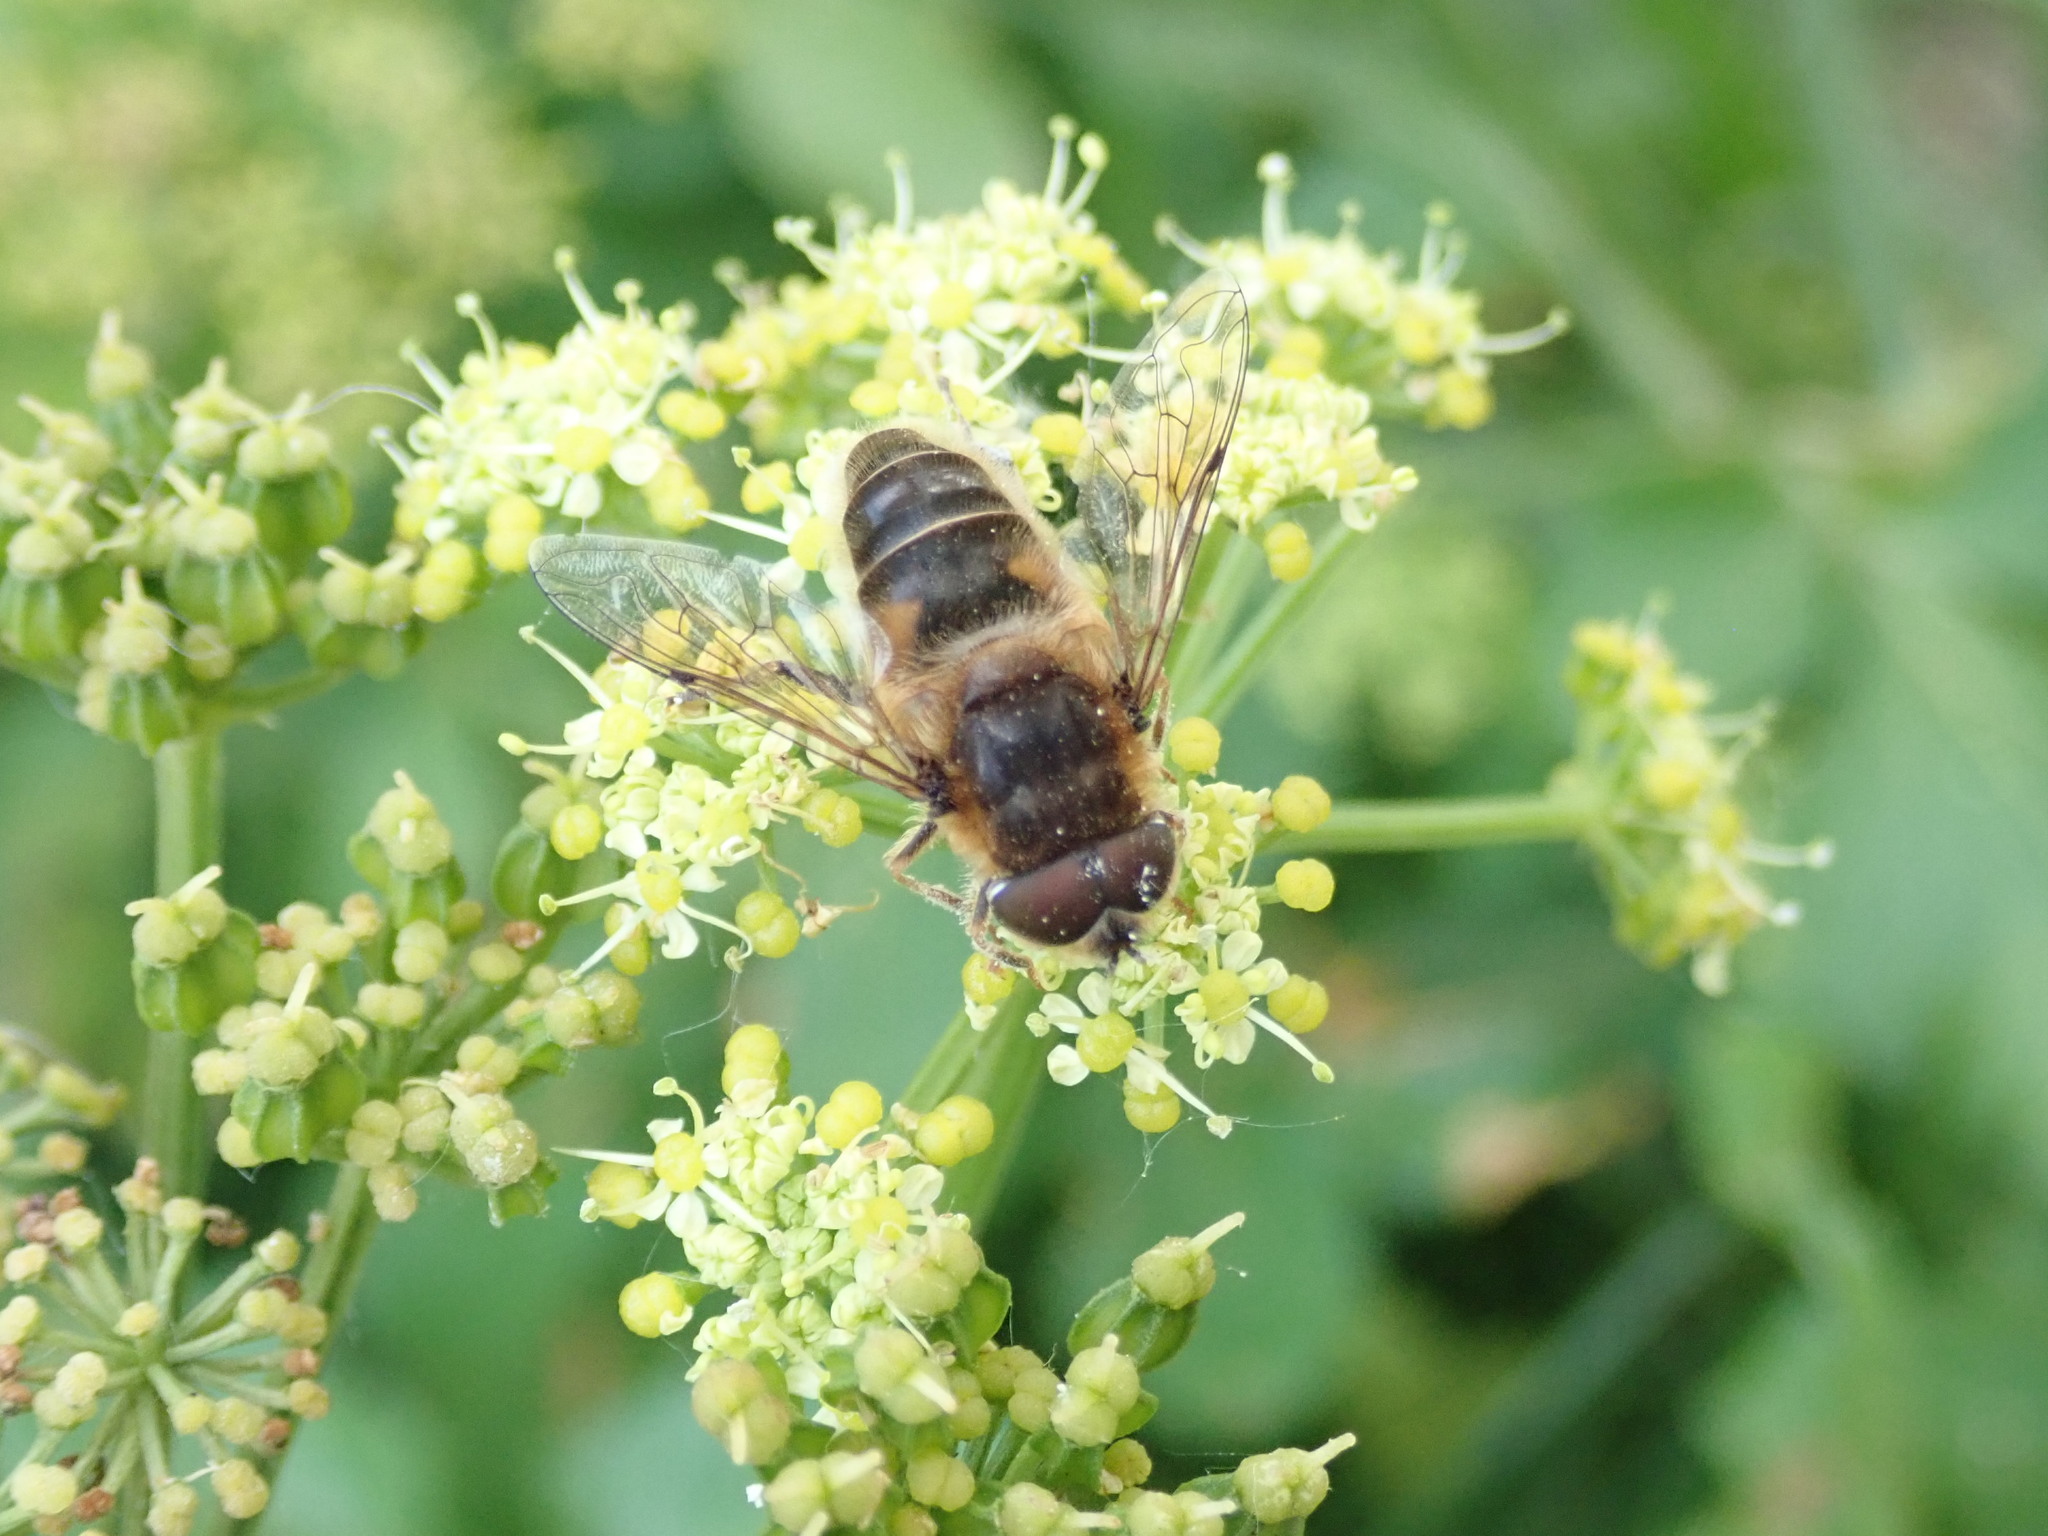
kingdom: Animalia
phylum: Arthropoda
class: Insecta
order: Diptera
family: Syrphidae
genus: Eristalis
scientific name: Eristalis pertinax
